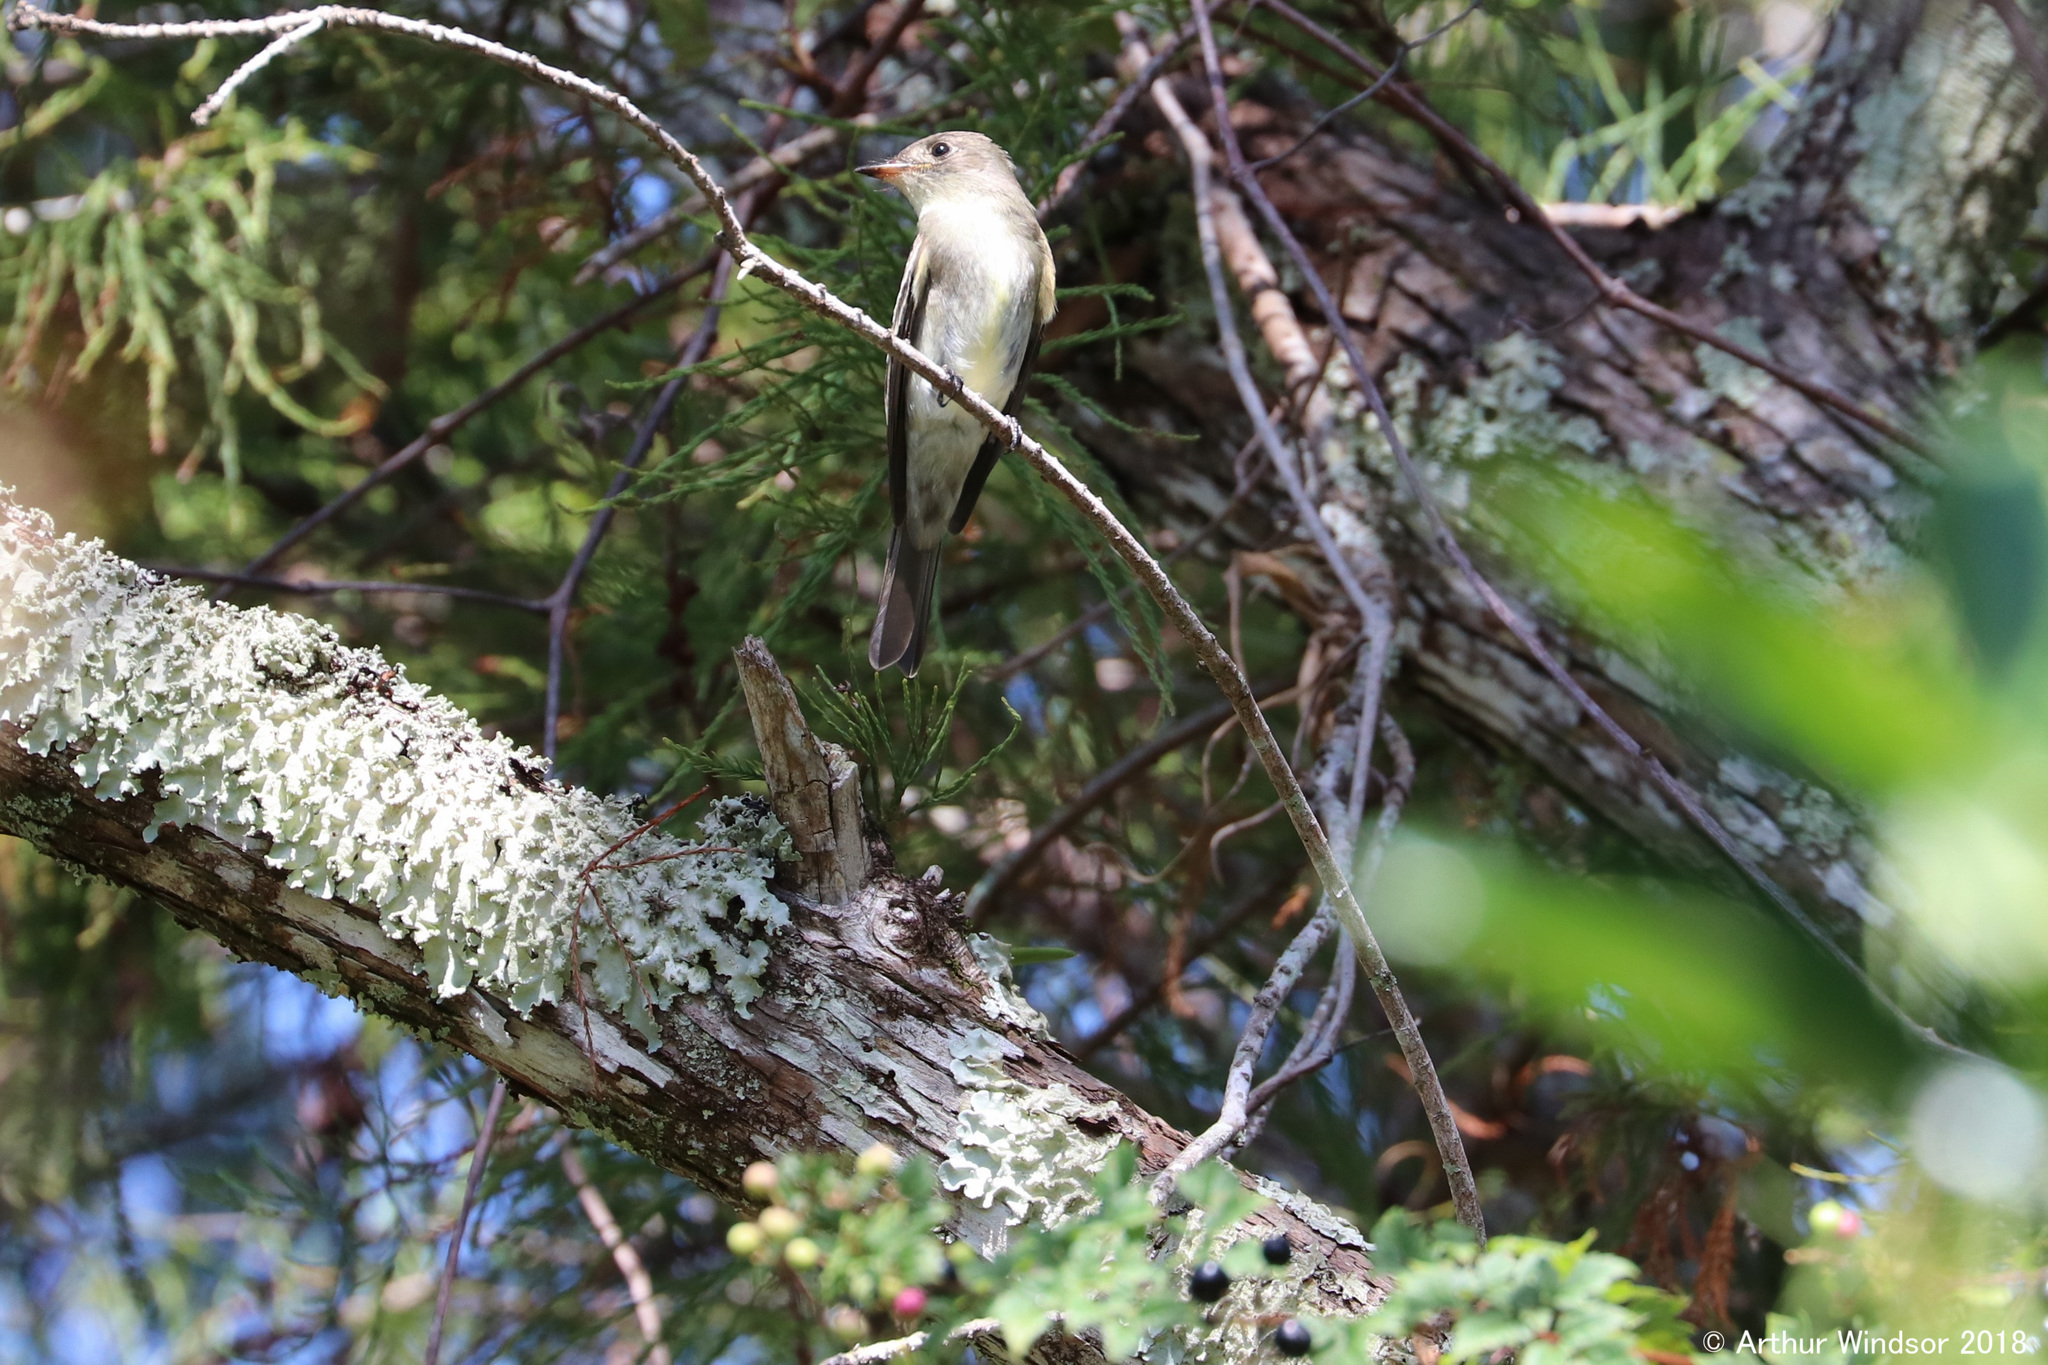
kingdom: Animalia
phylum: Chordata
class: Aves
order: Passeriformes
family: Tyrannidae
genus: Contopus
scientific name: Contopus virens
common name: Eastern wood-pewee
